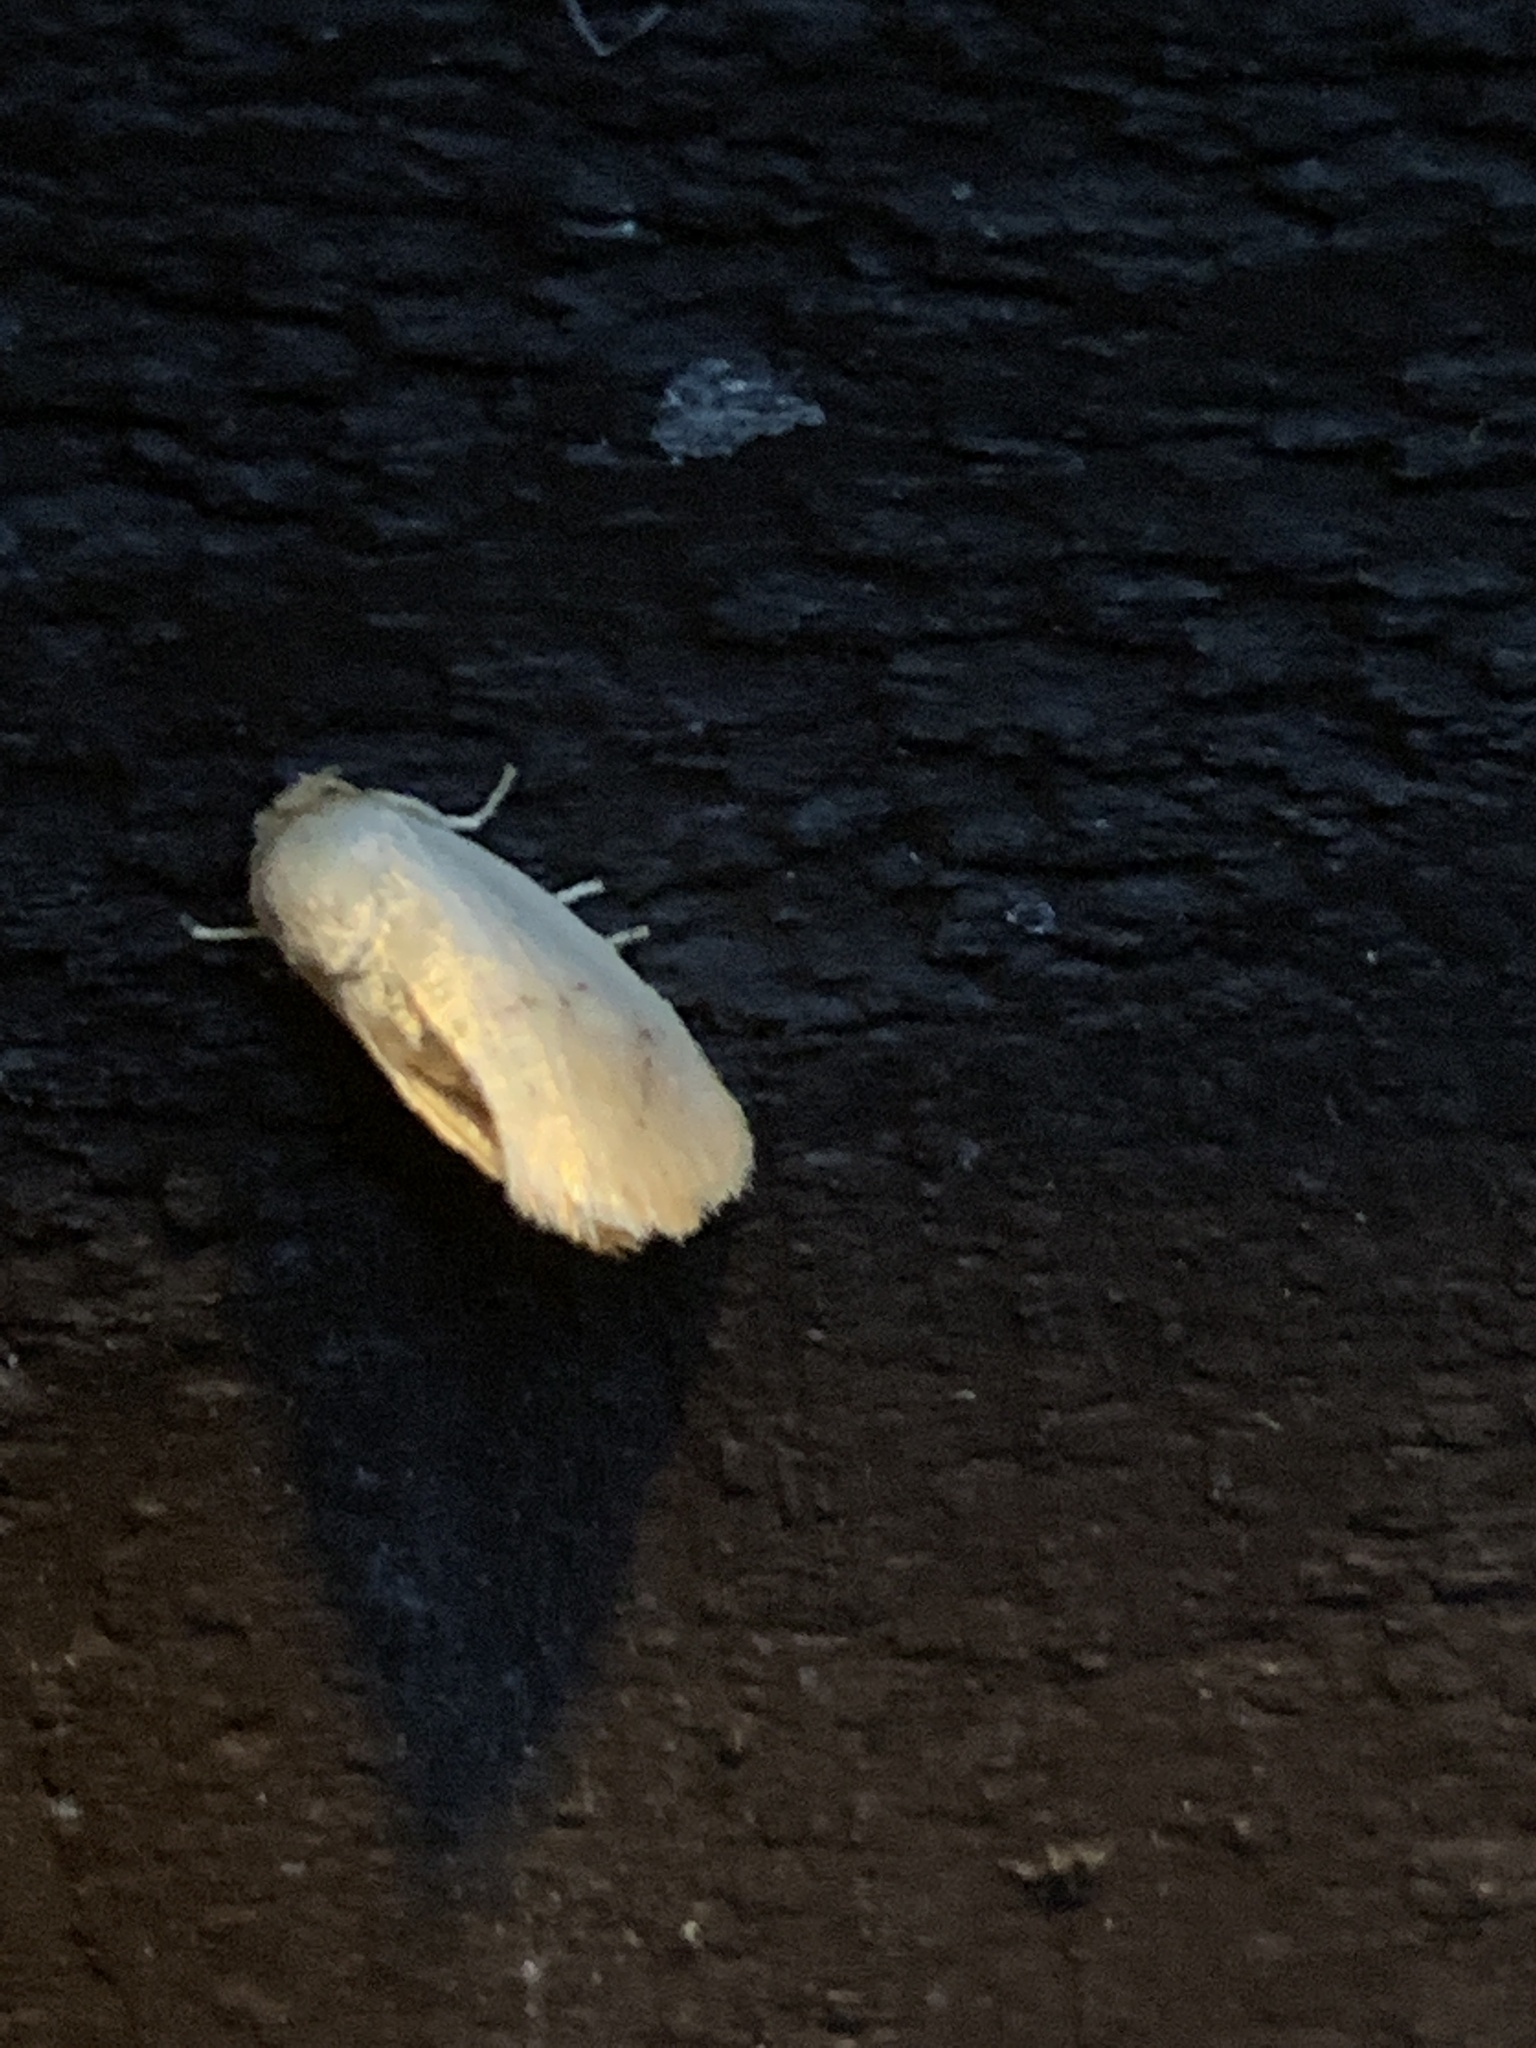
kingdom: Animalia
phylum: Arthropoda
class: Insecta
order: Lepidoptera
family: Limacodidae
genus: Tortricidia
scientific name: Tortricidia pallida
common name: Red-crossed button slug moth
